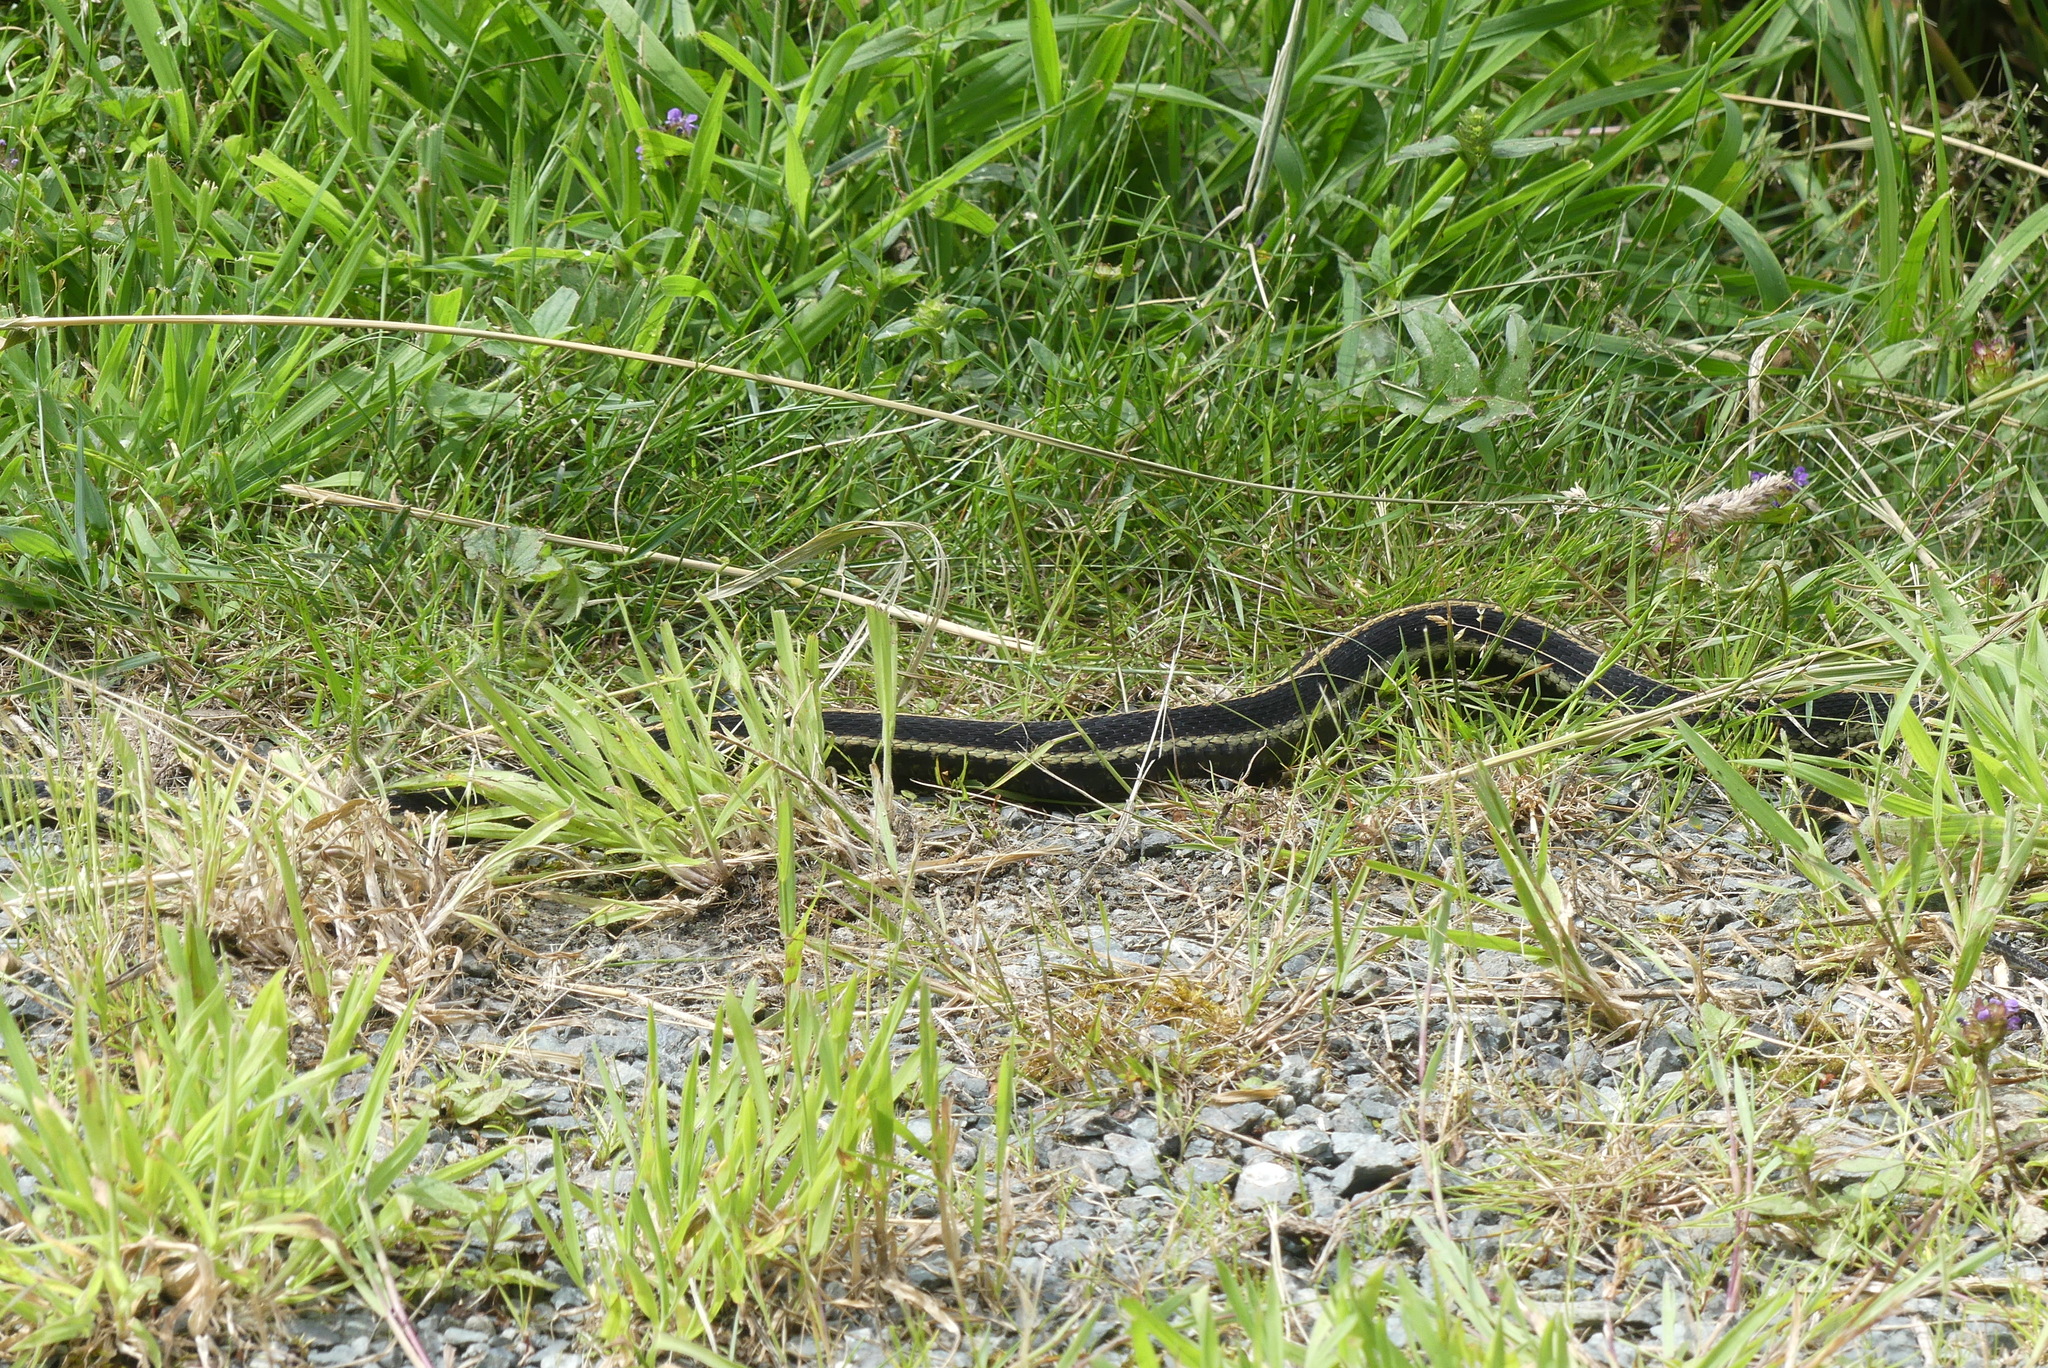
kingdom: Animalia
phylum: Chordata
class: Squamata
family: Colubridae
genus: Thamnophis
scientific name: Thamnophis sirtalis
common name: Common garter snake
